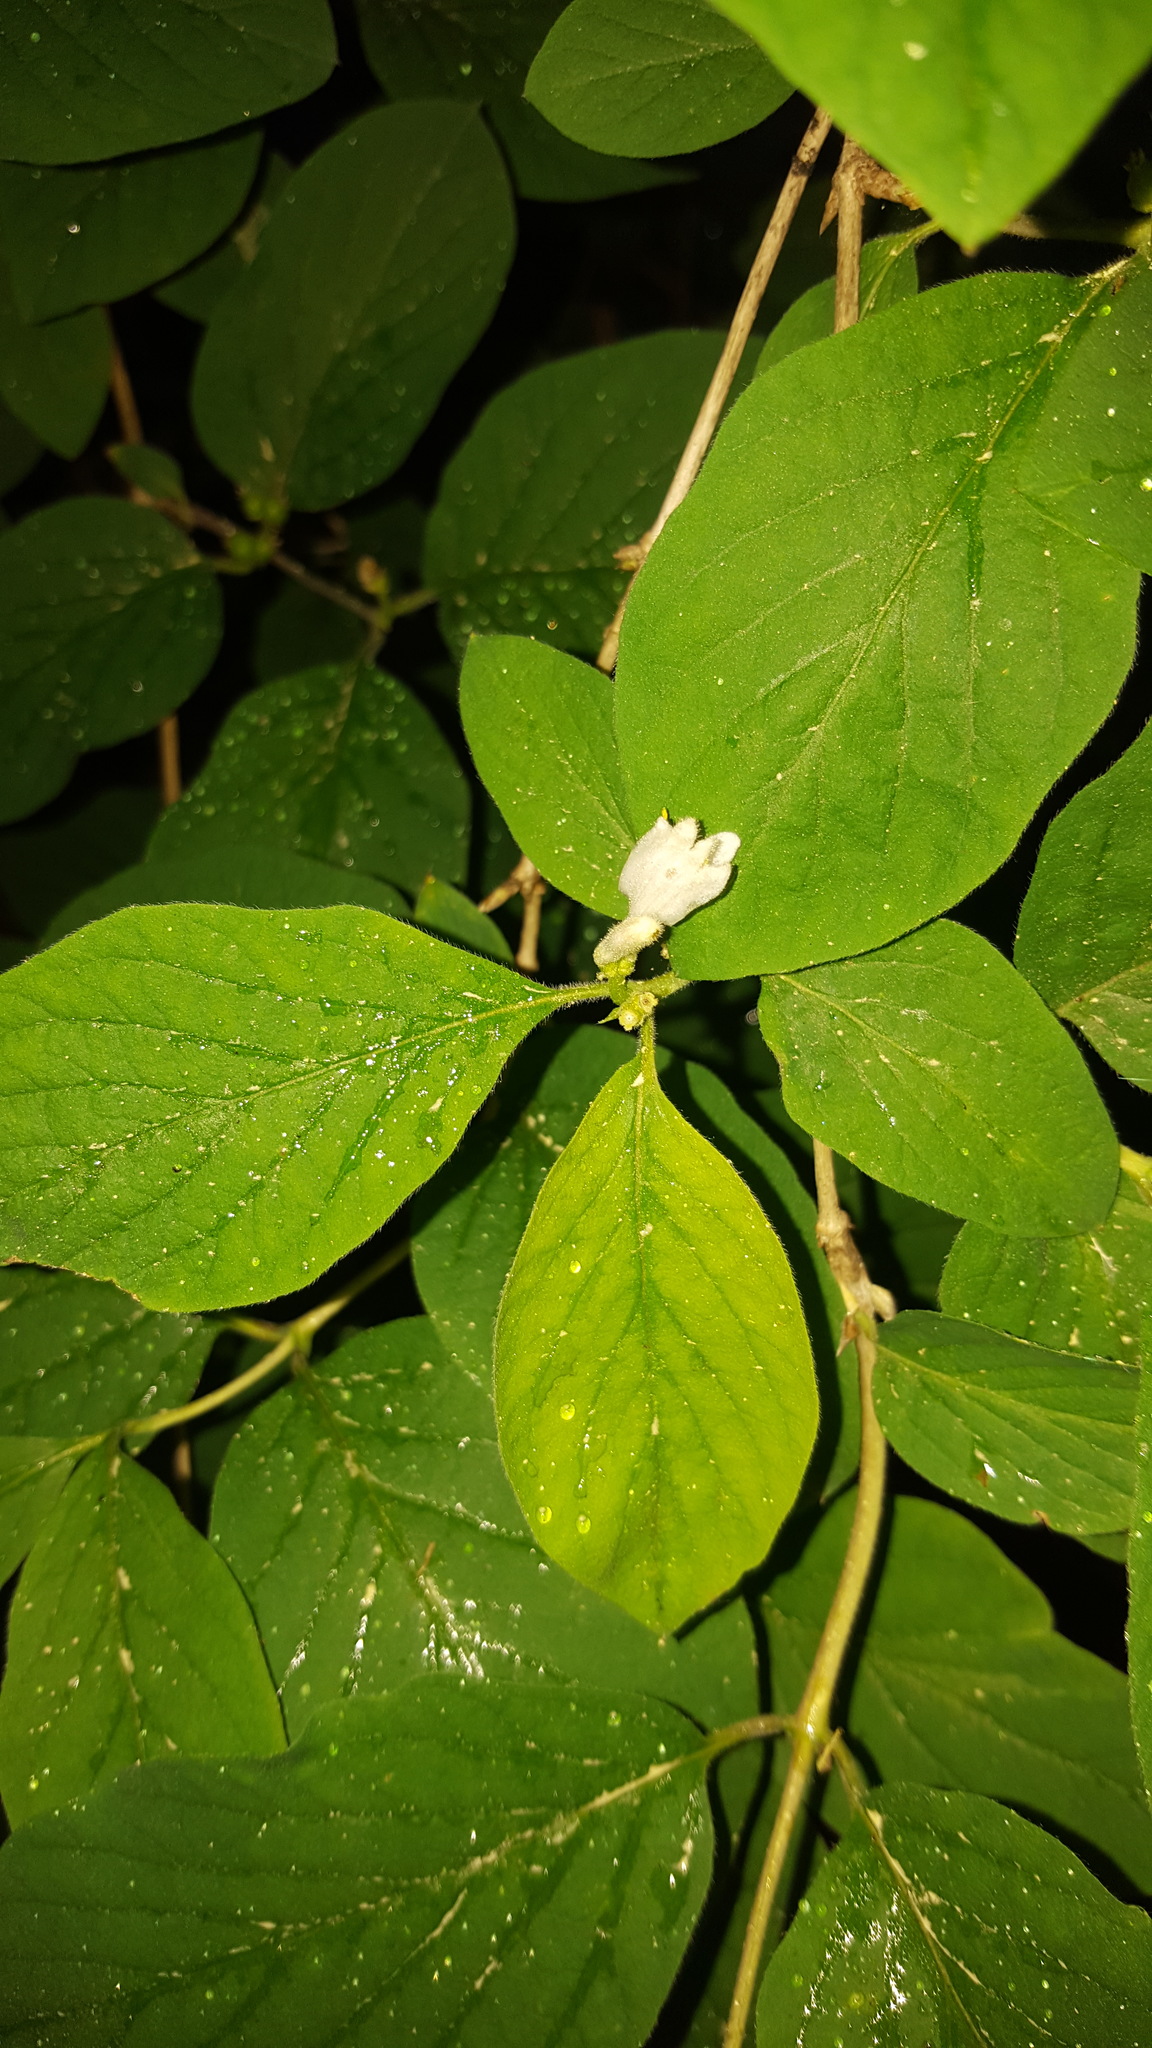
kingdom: Plantae
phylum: Tracheophyta
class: Magnoliopsida
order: Dipsacales
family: Caprifoliaceae
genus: Lonicera
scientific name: Lonicera xylosteum
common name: Fly honeysuckle
